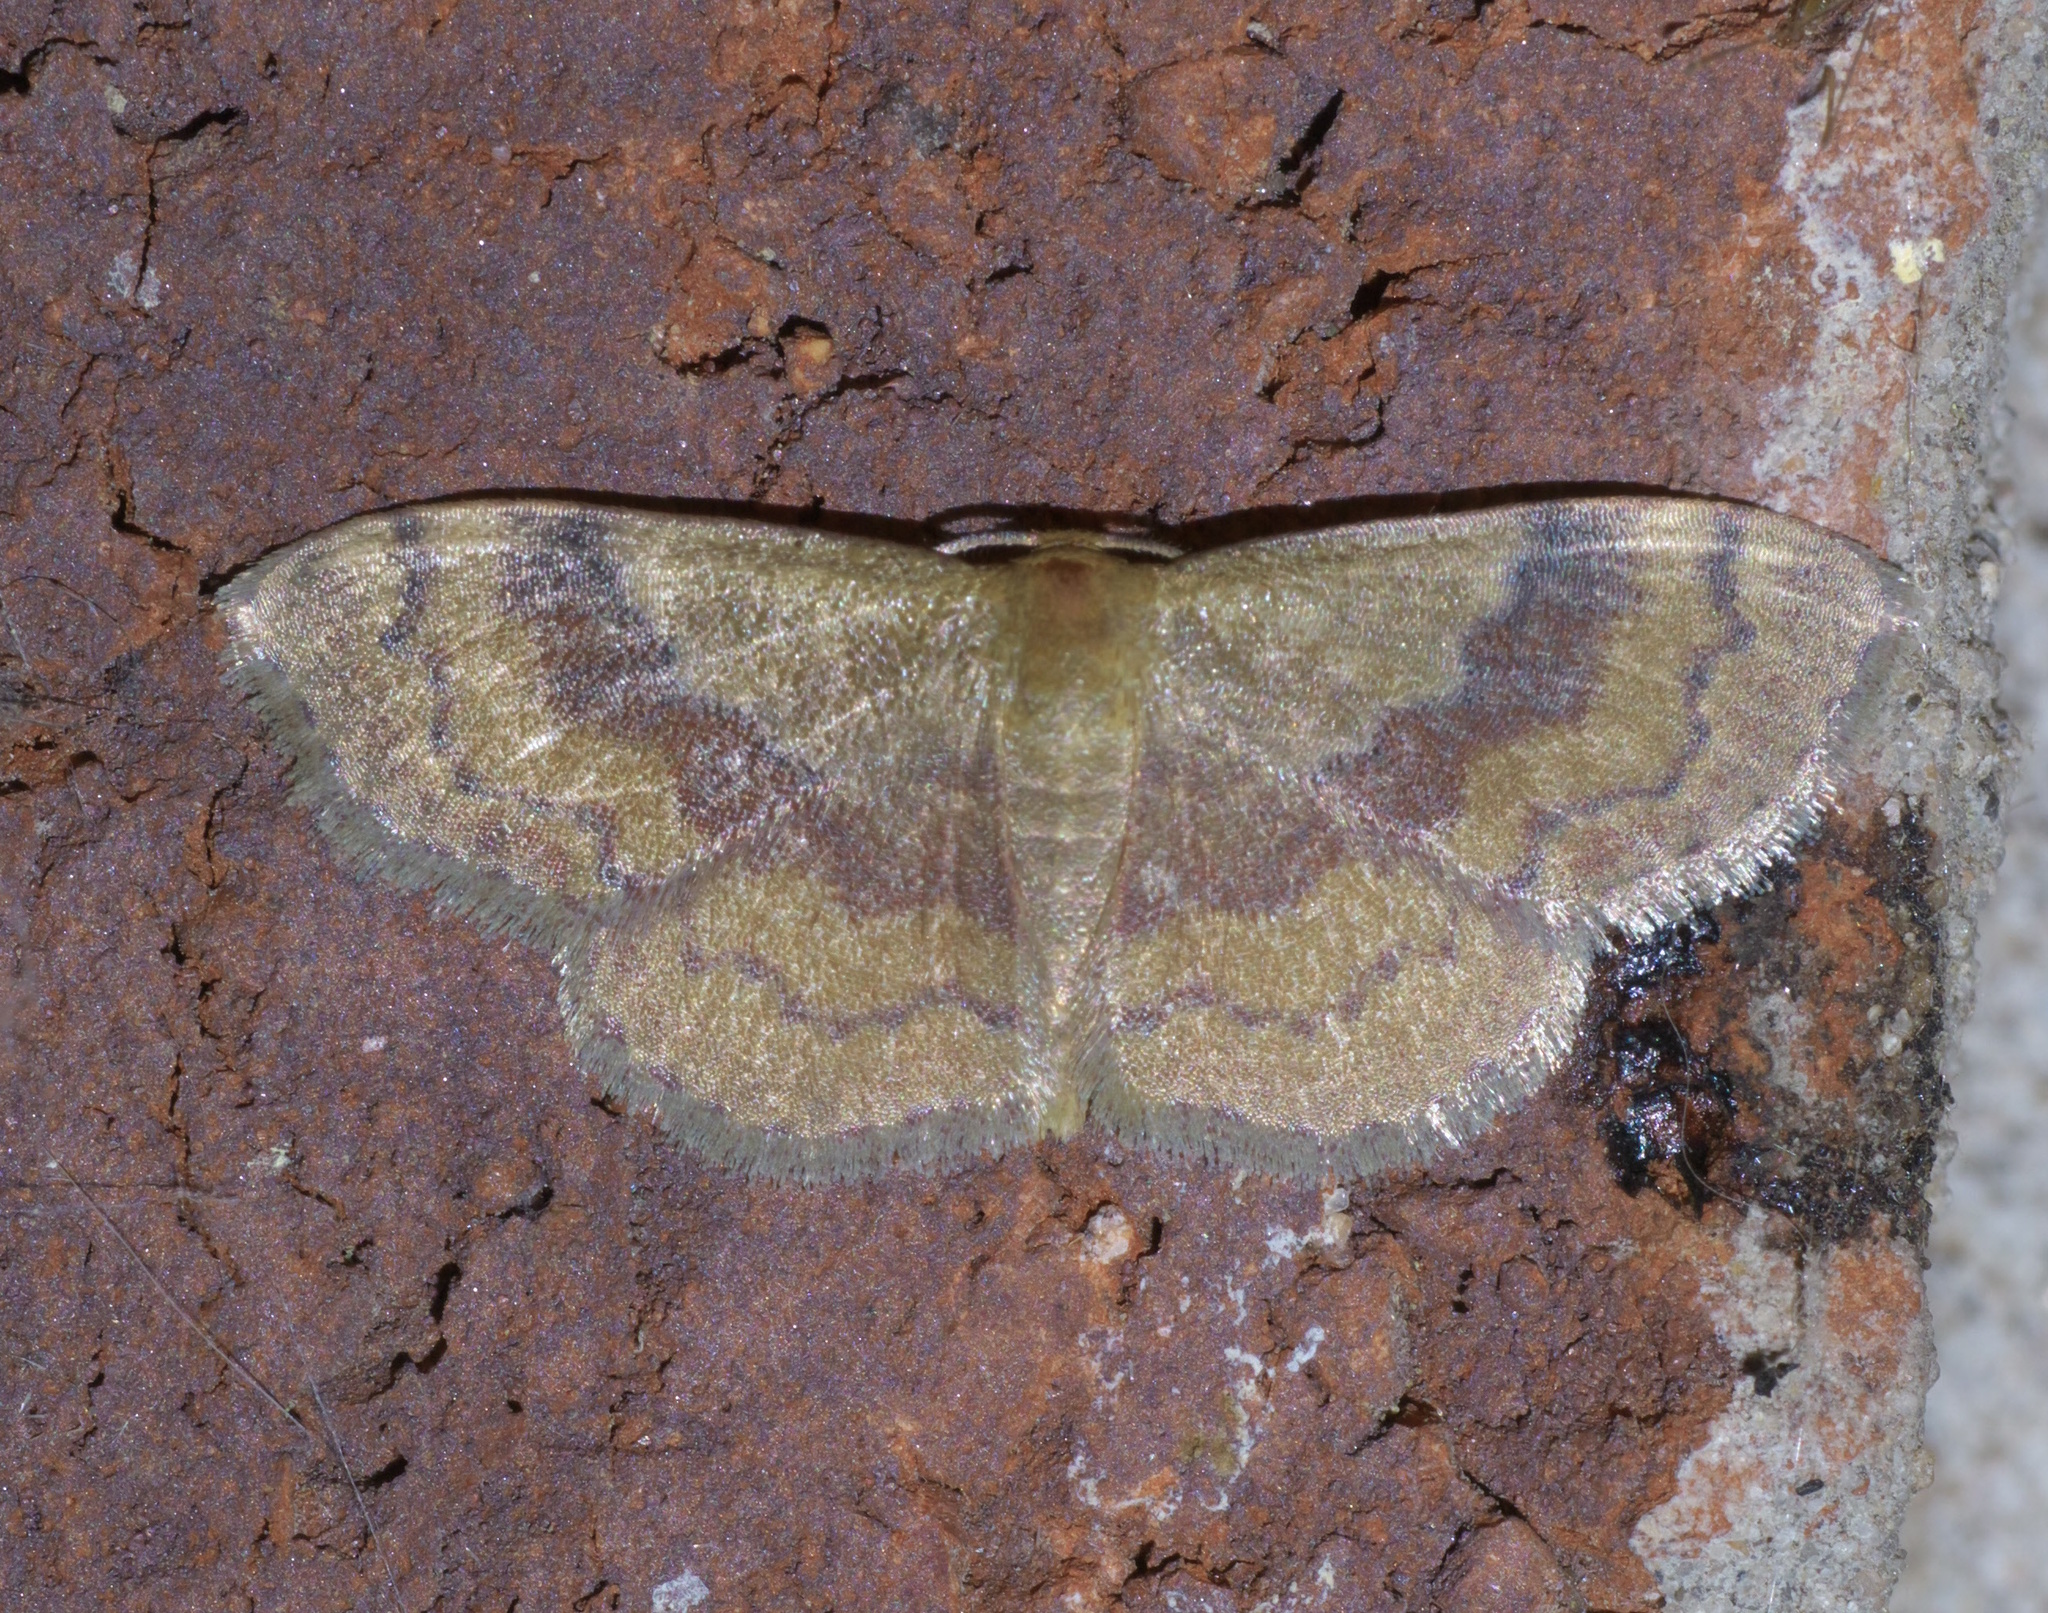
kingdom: Animalia
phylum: Arthropoda
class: Insecta
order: Lepidoptera
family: Geometridae
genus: Leptostales
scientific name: Leptostales ferruminaria
